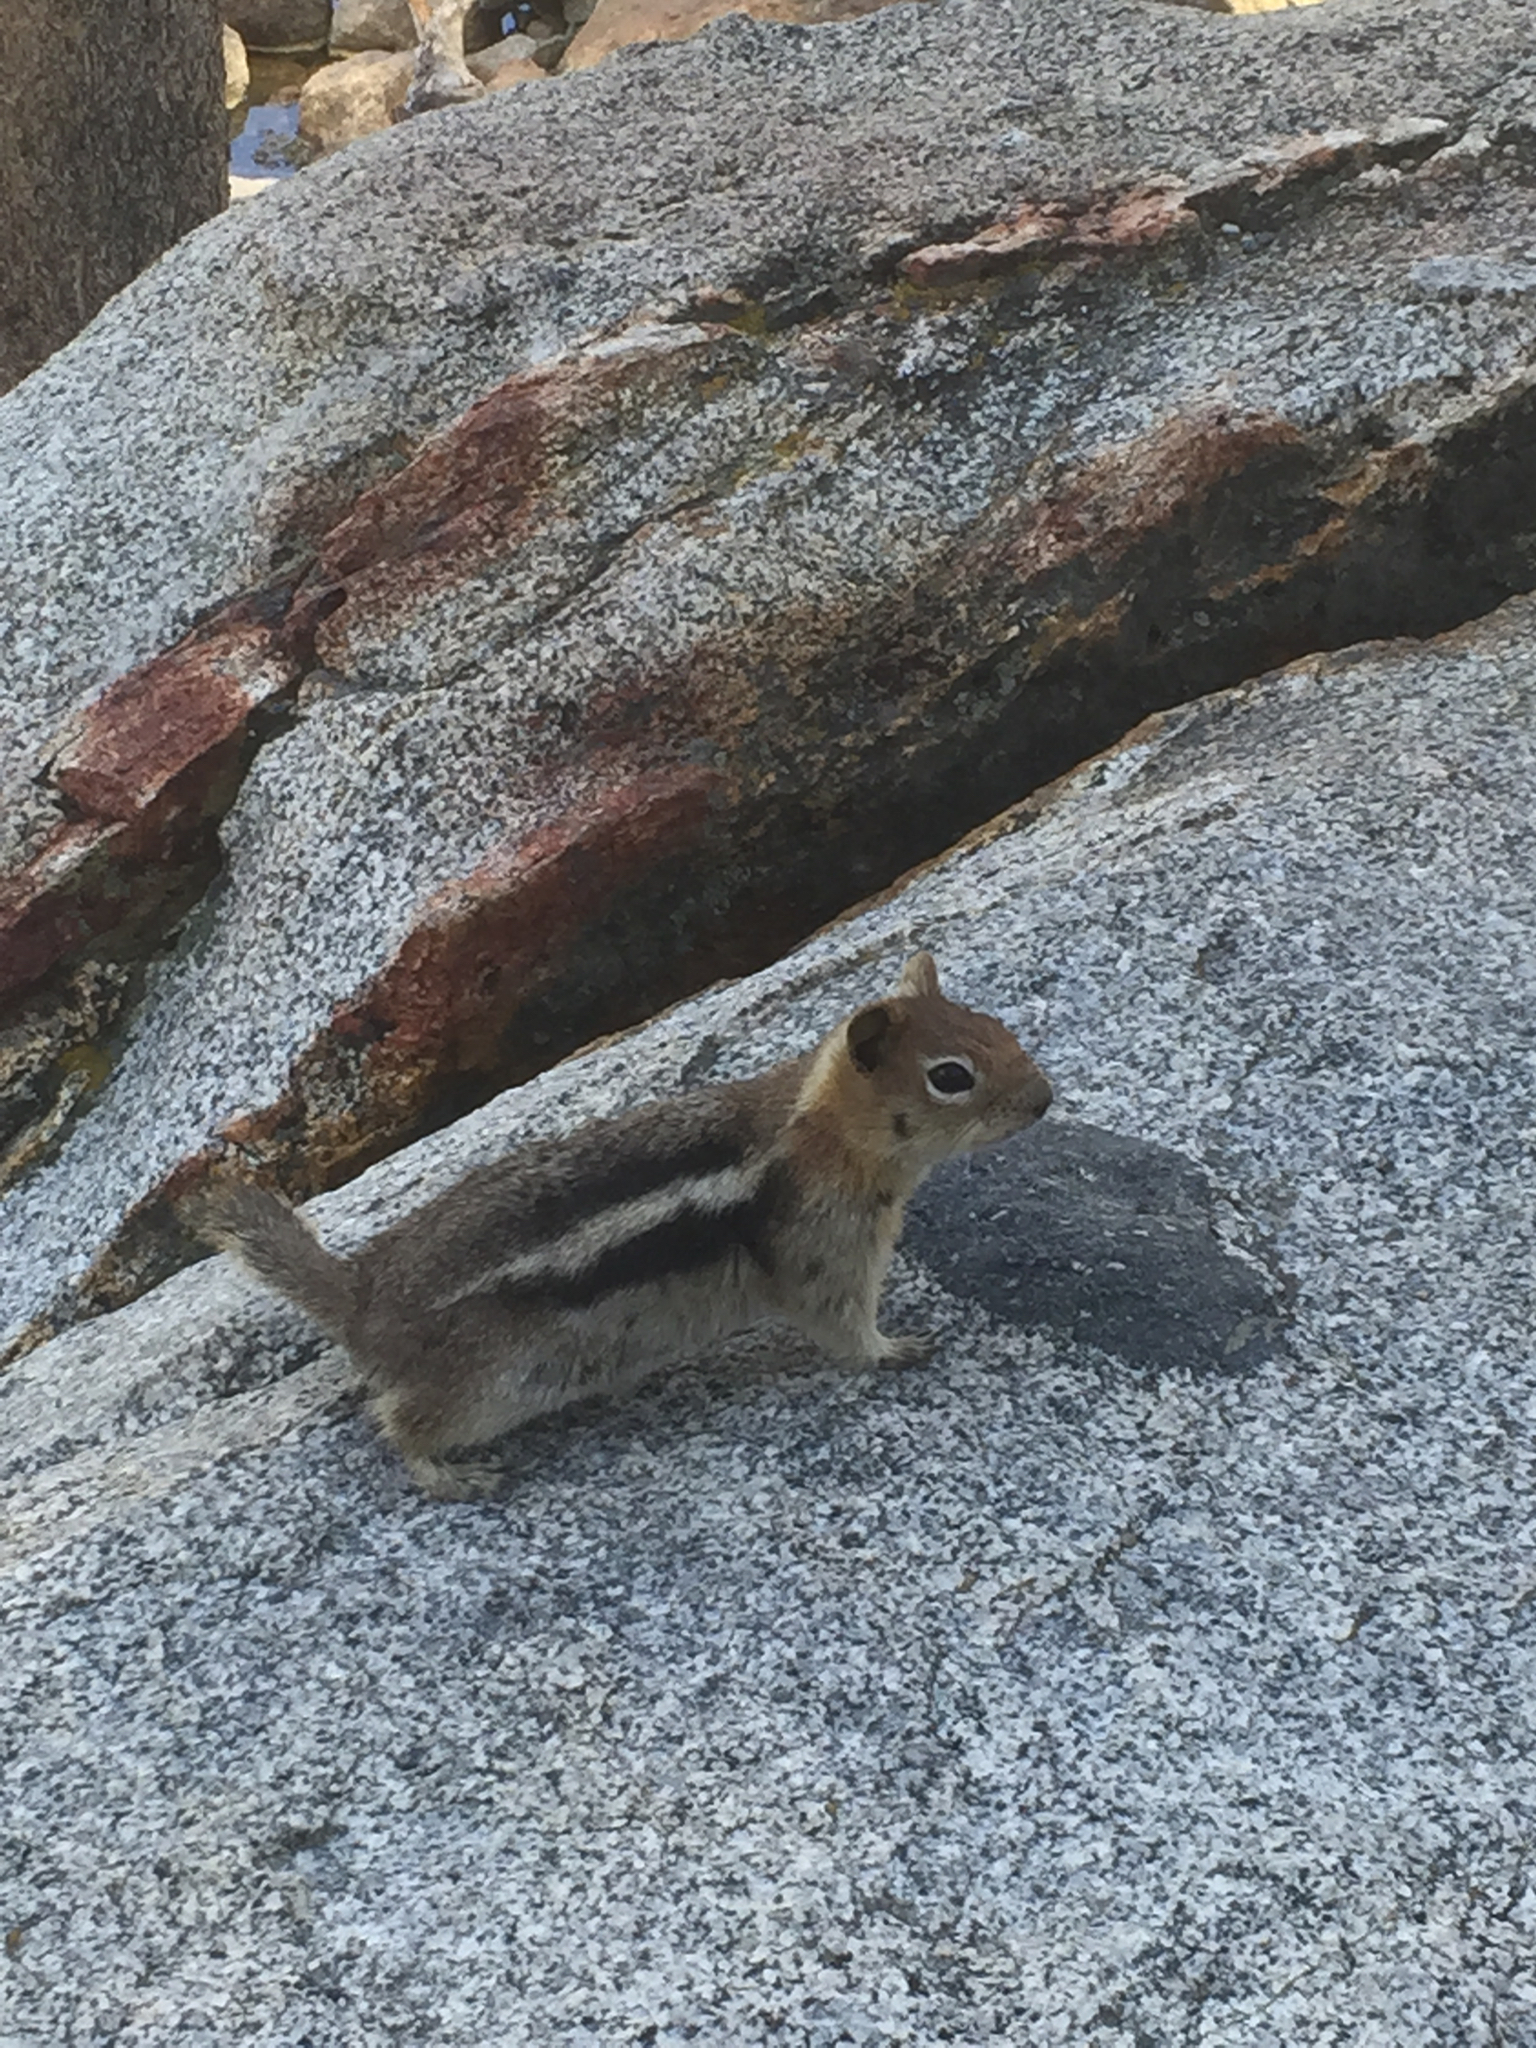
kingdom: Animalia
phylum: Chordata
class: Mammalia
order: Rodentia
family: Sciuridae
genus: Callospermophilus
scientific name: Callospermophilus lateralis
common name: Golden-mantled ground squirrel
